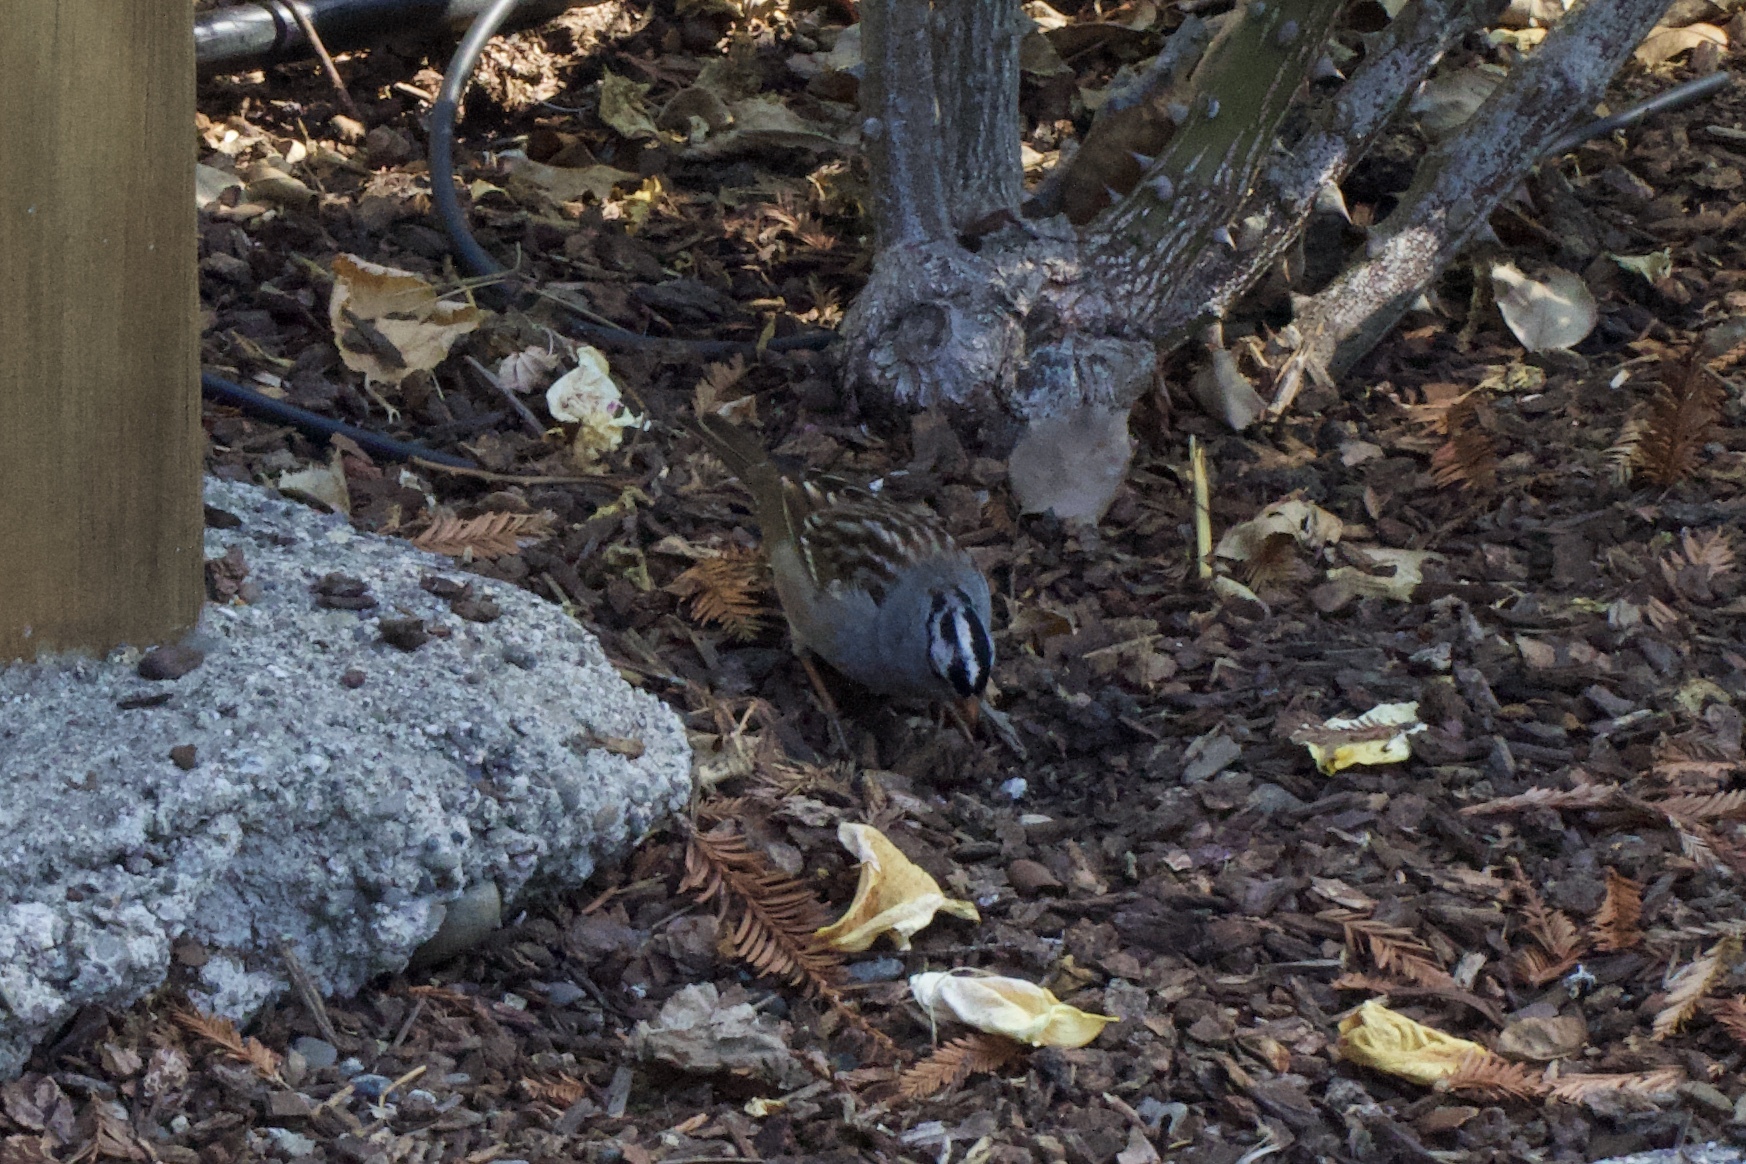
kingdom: Animalia
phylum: Chordata
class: Aves
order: Passeriformes
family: Passerellidae
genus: Zonotrichia
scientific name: Zonotrichia leucophrys
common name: White-crowned sparrow
